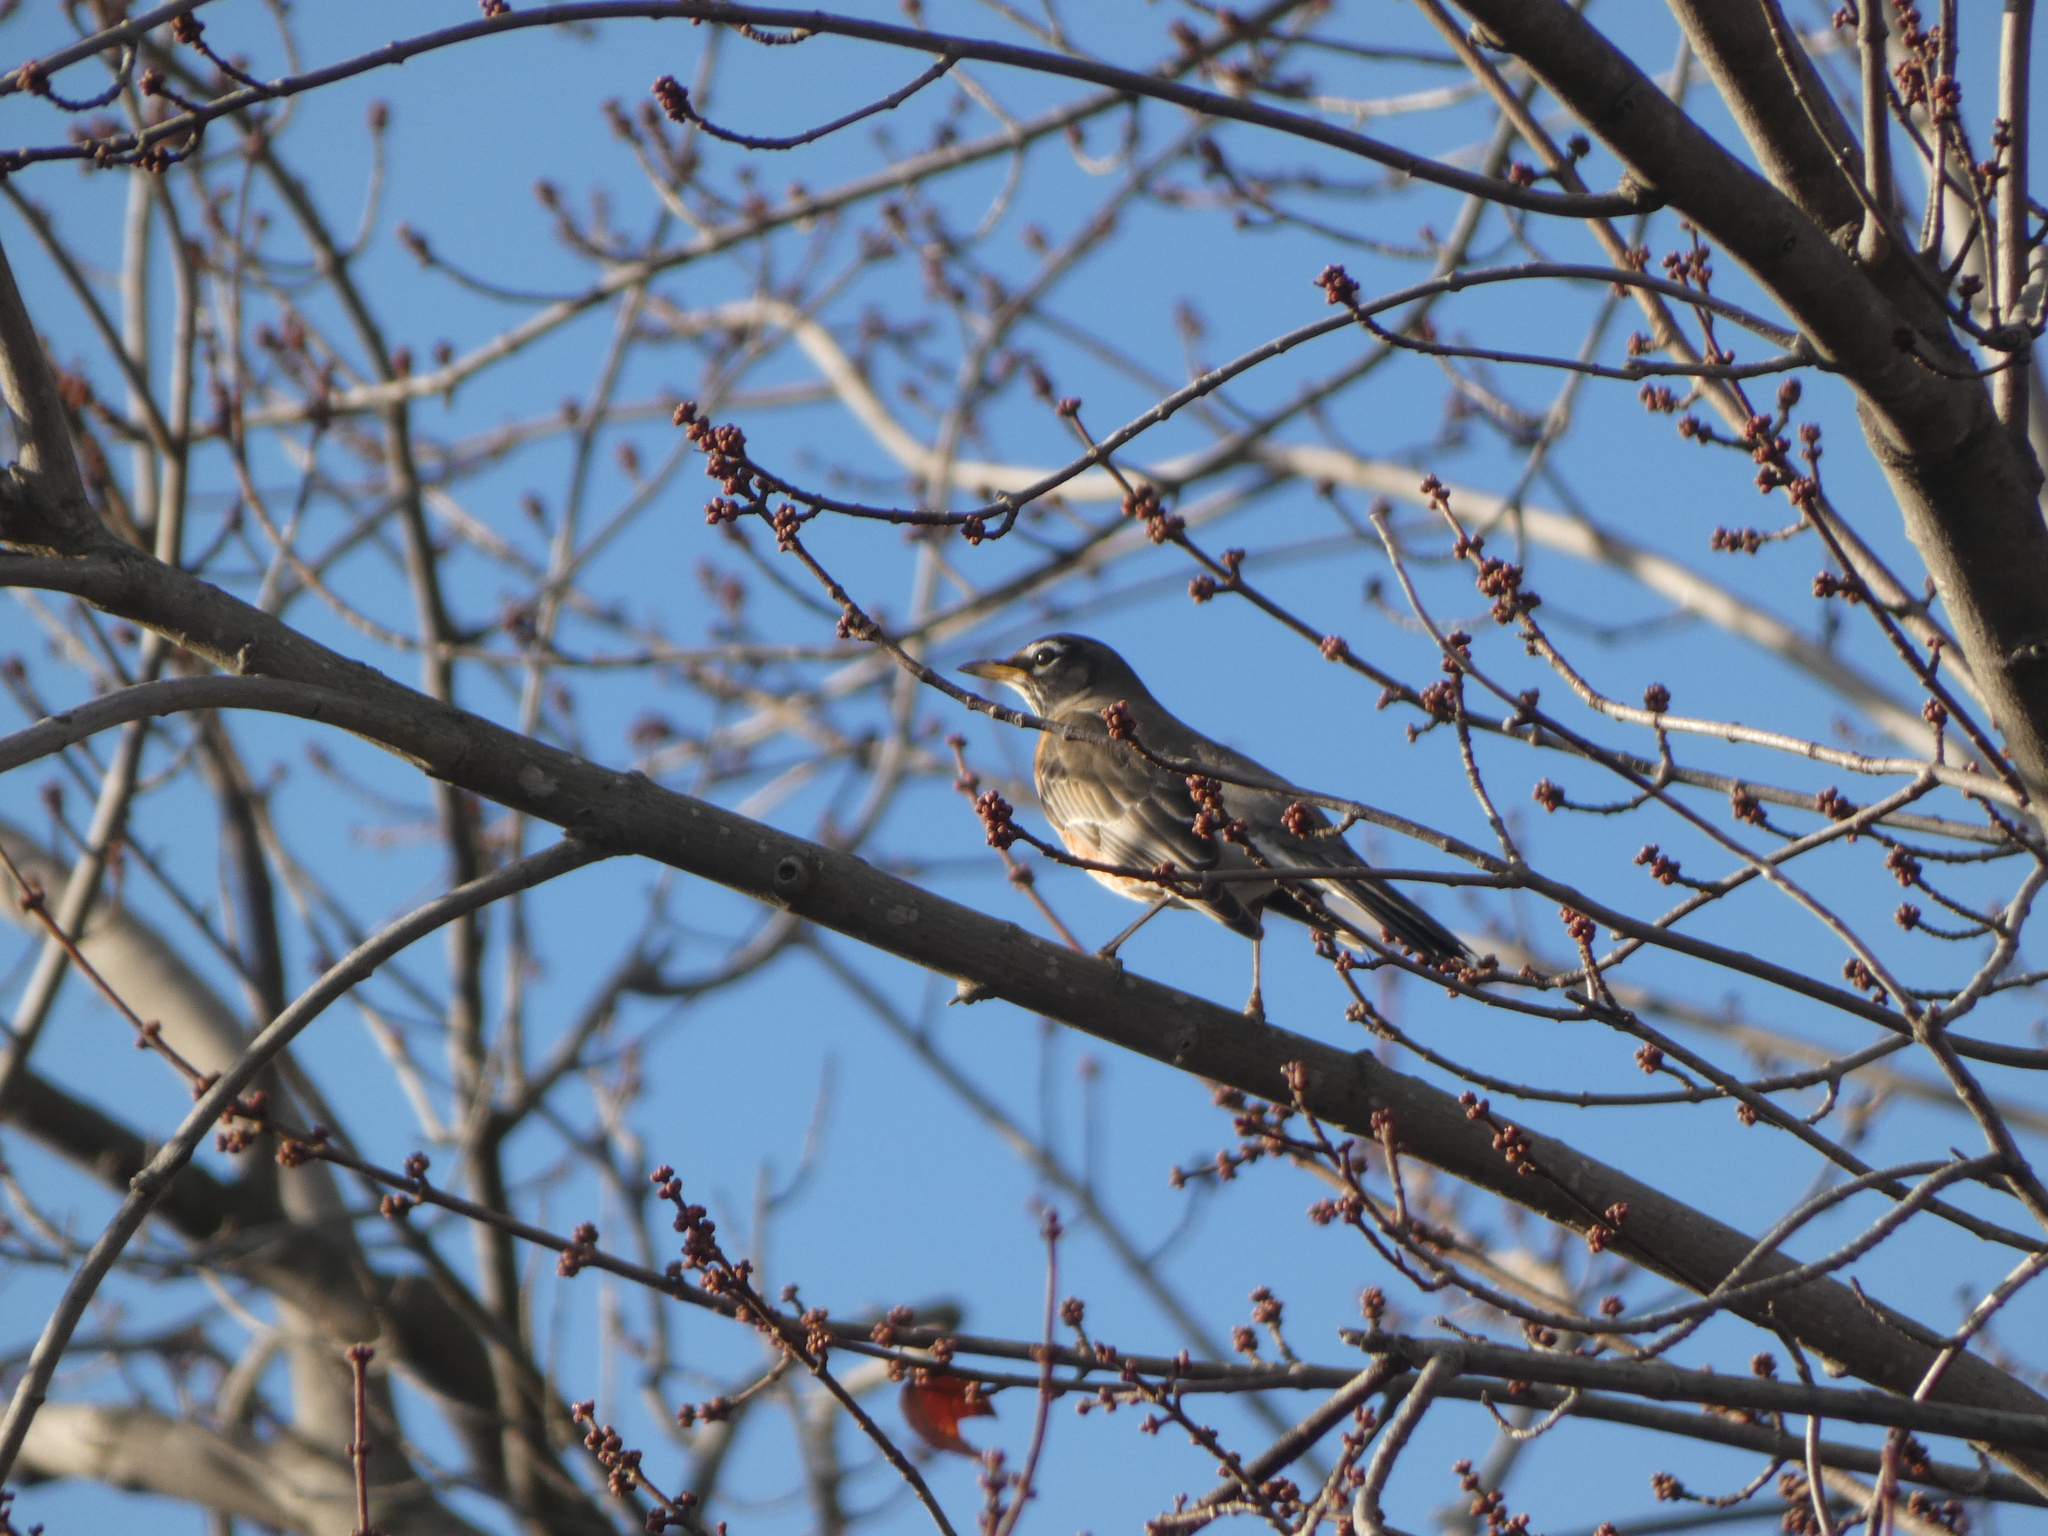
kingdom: Animalia
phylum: Chordata
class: Aves
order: Passeriformes
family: Turdidae
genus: Turdus
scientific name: Turdus migratorius
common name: American robin
